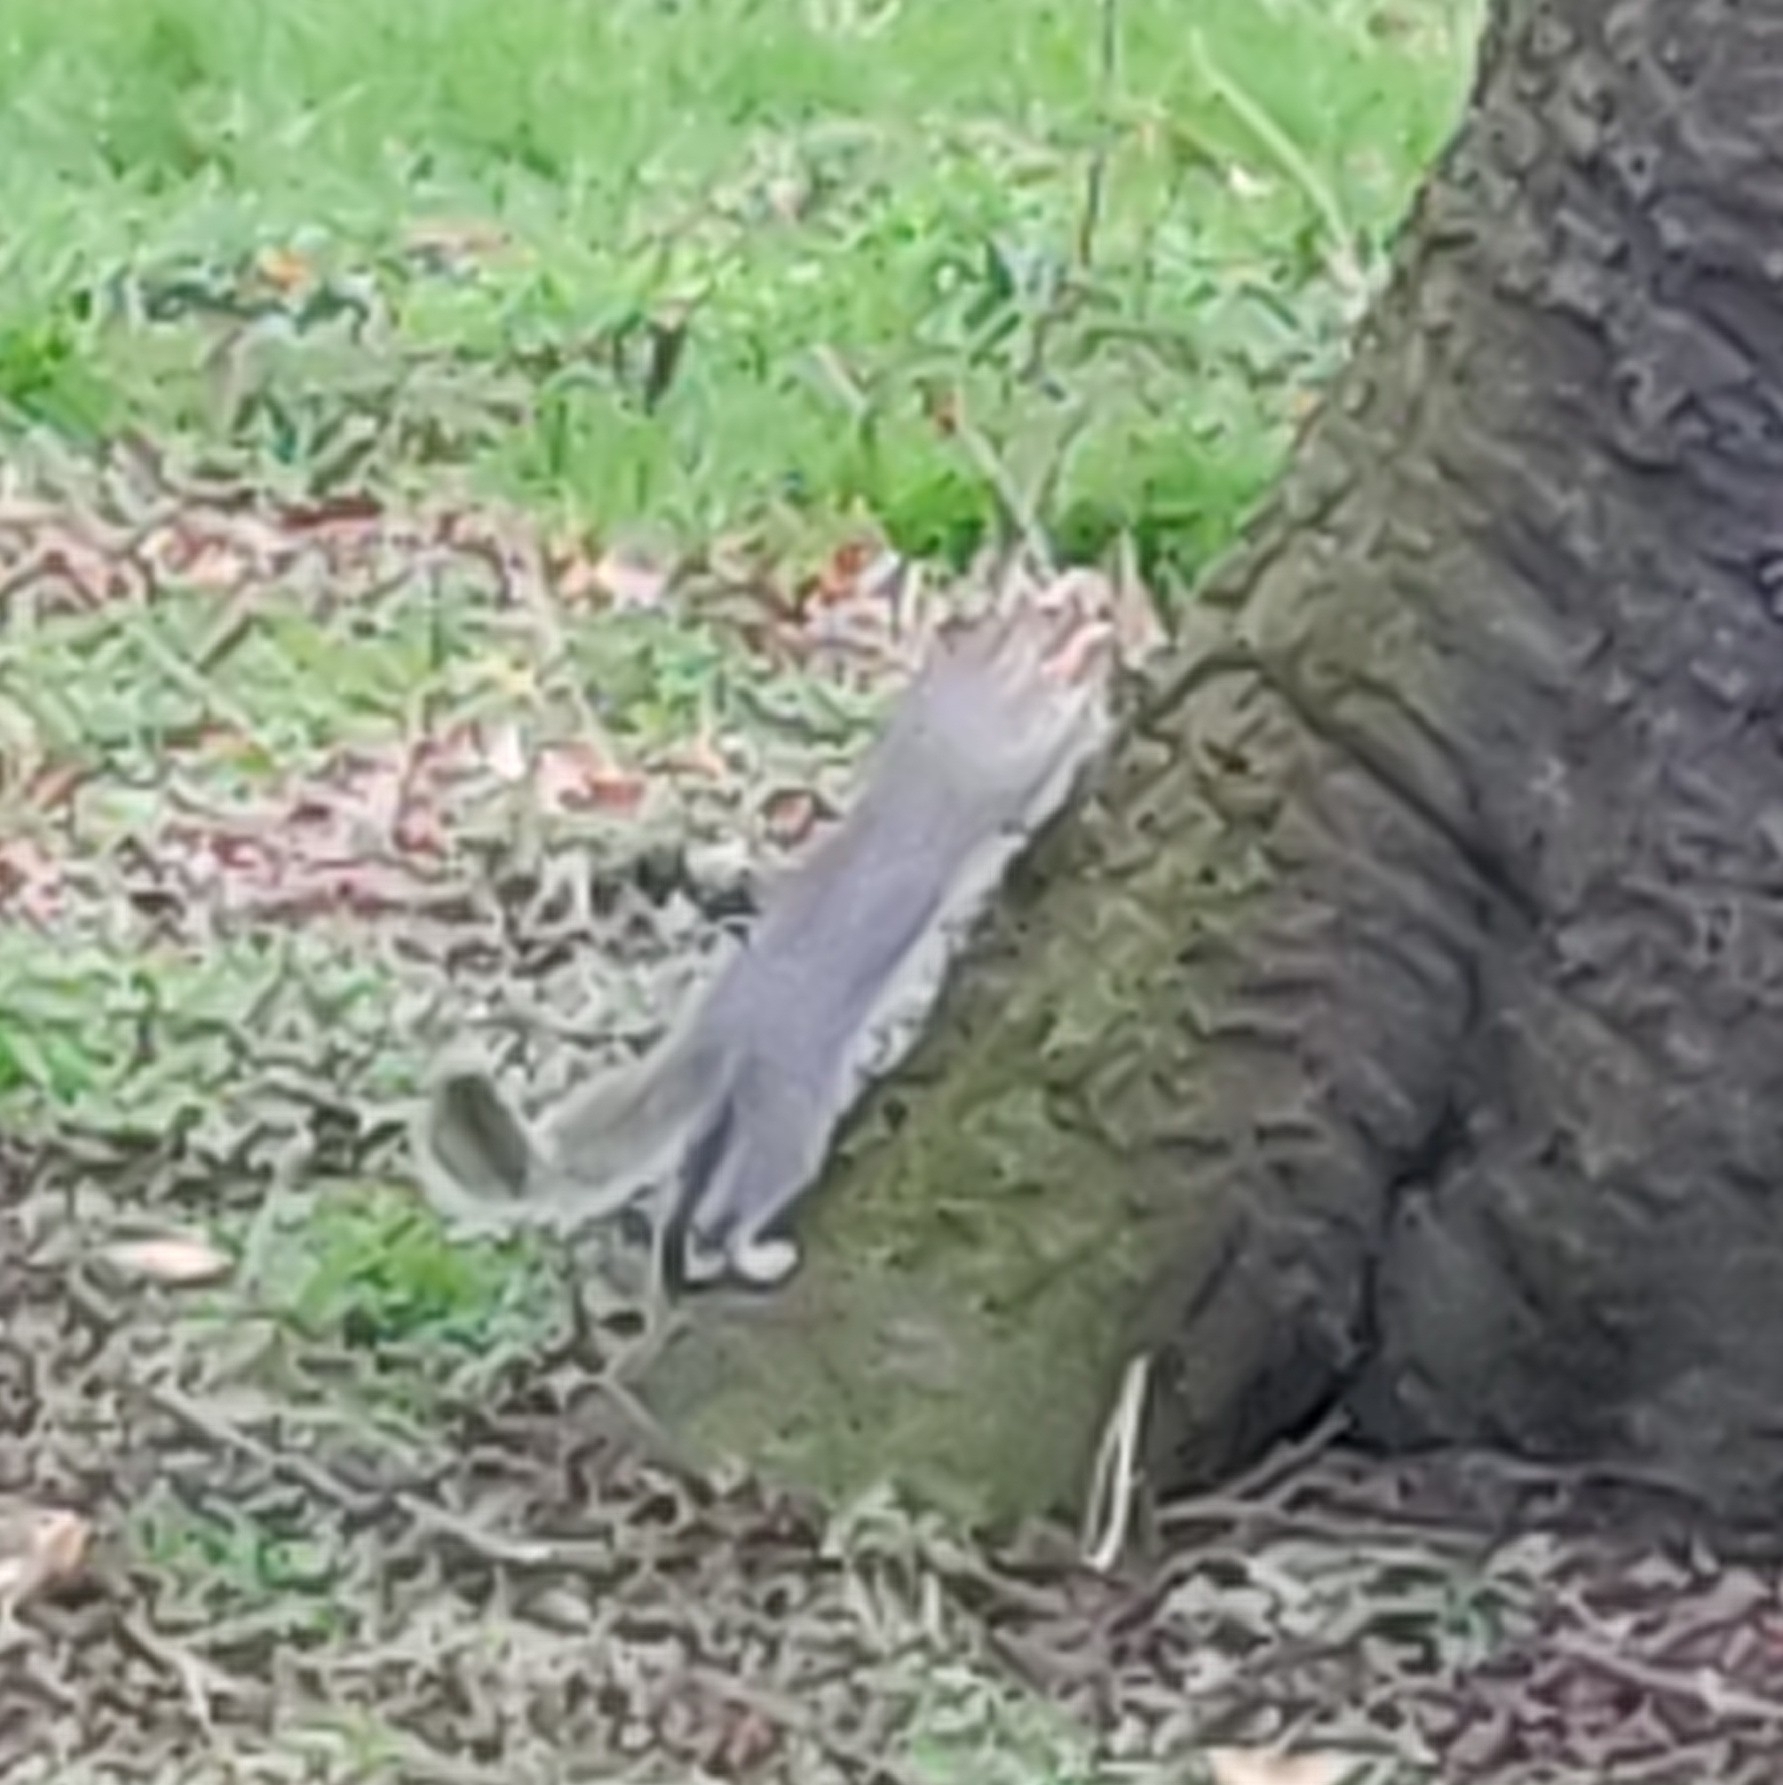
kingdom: Animalia
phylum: Chordata
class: Mammalia
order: Rodentia
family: Sciuridae
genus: Sciurus
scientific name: Sciurus carolinensis
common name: Eastern gray squirrel
